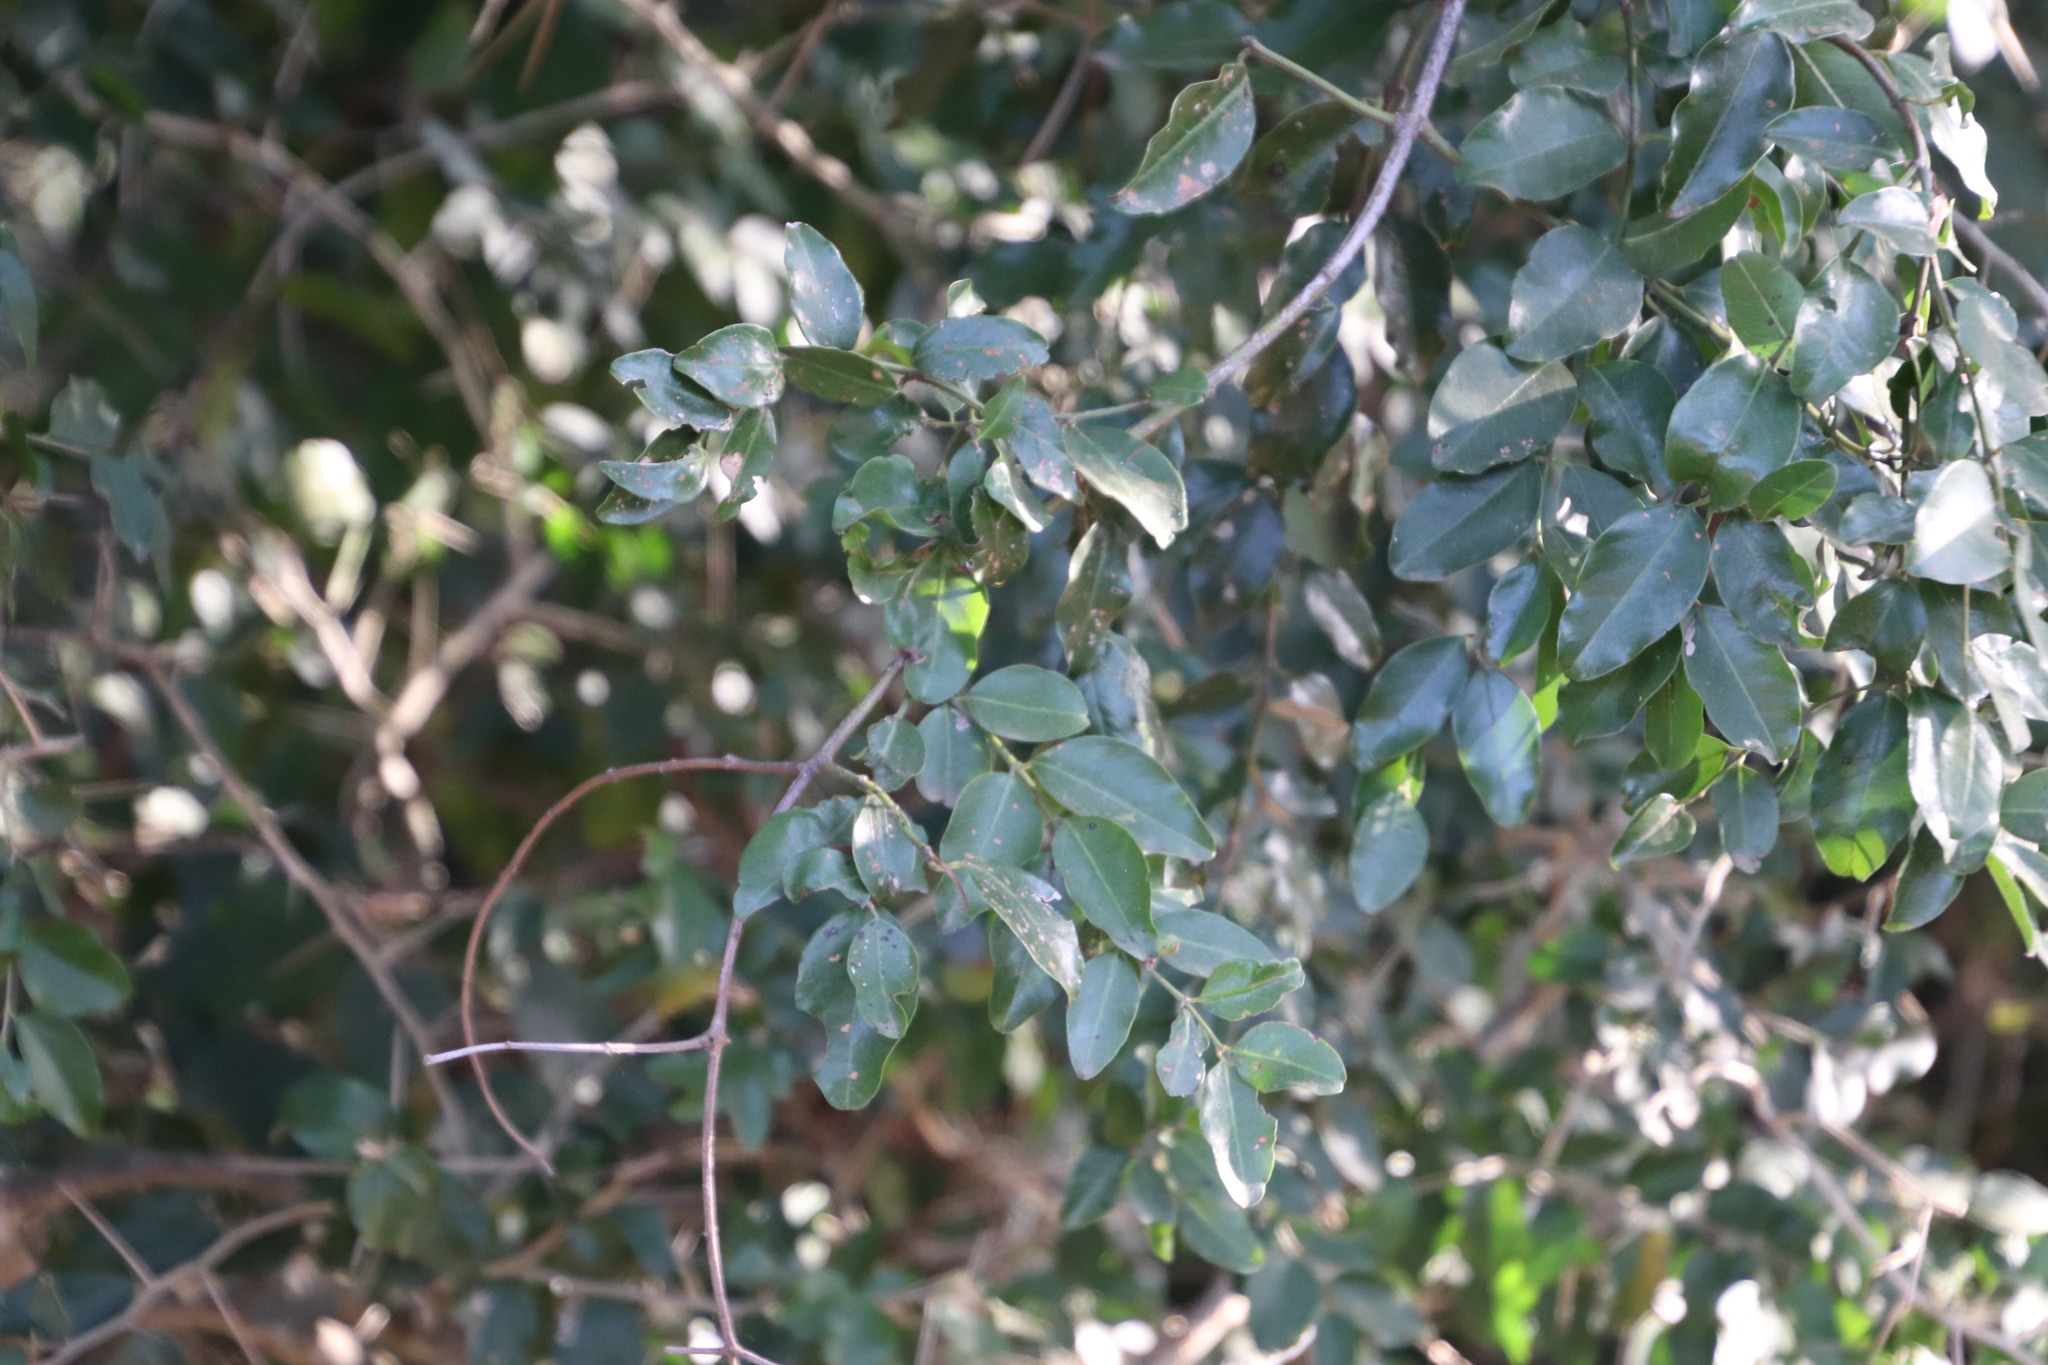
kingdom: Plantae
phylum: Tracheophyta
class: Magnoliopsida
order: Rosales
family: Rhamnaceae
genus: Scutia
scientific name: Scutia myrtina
